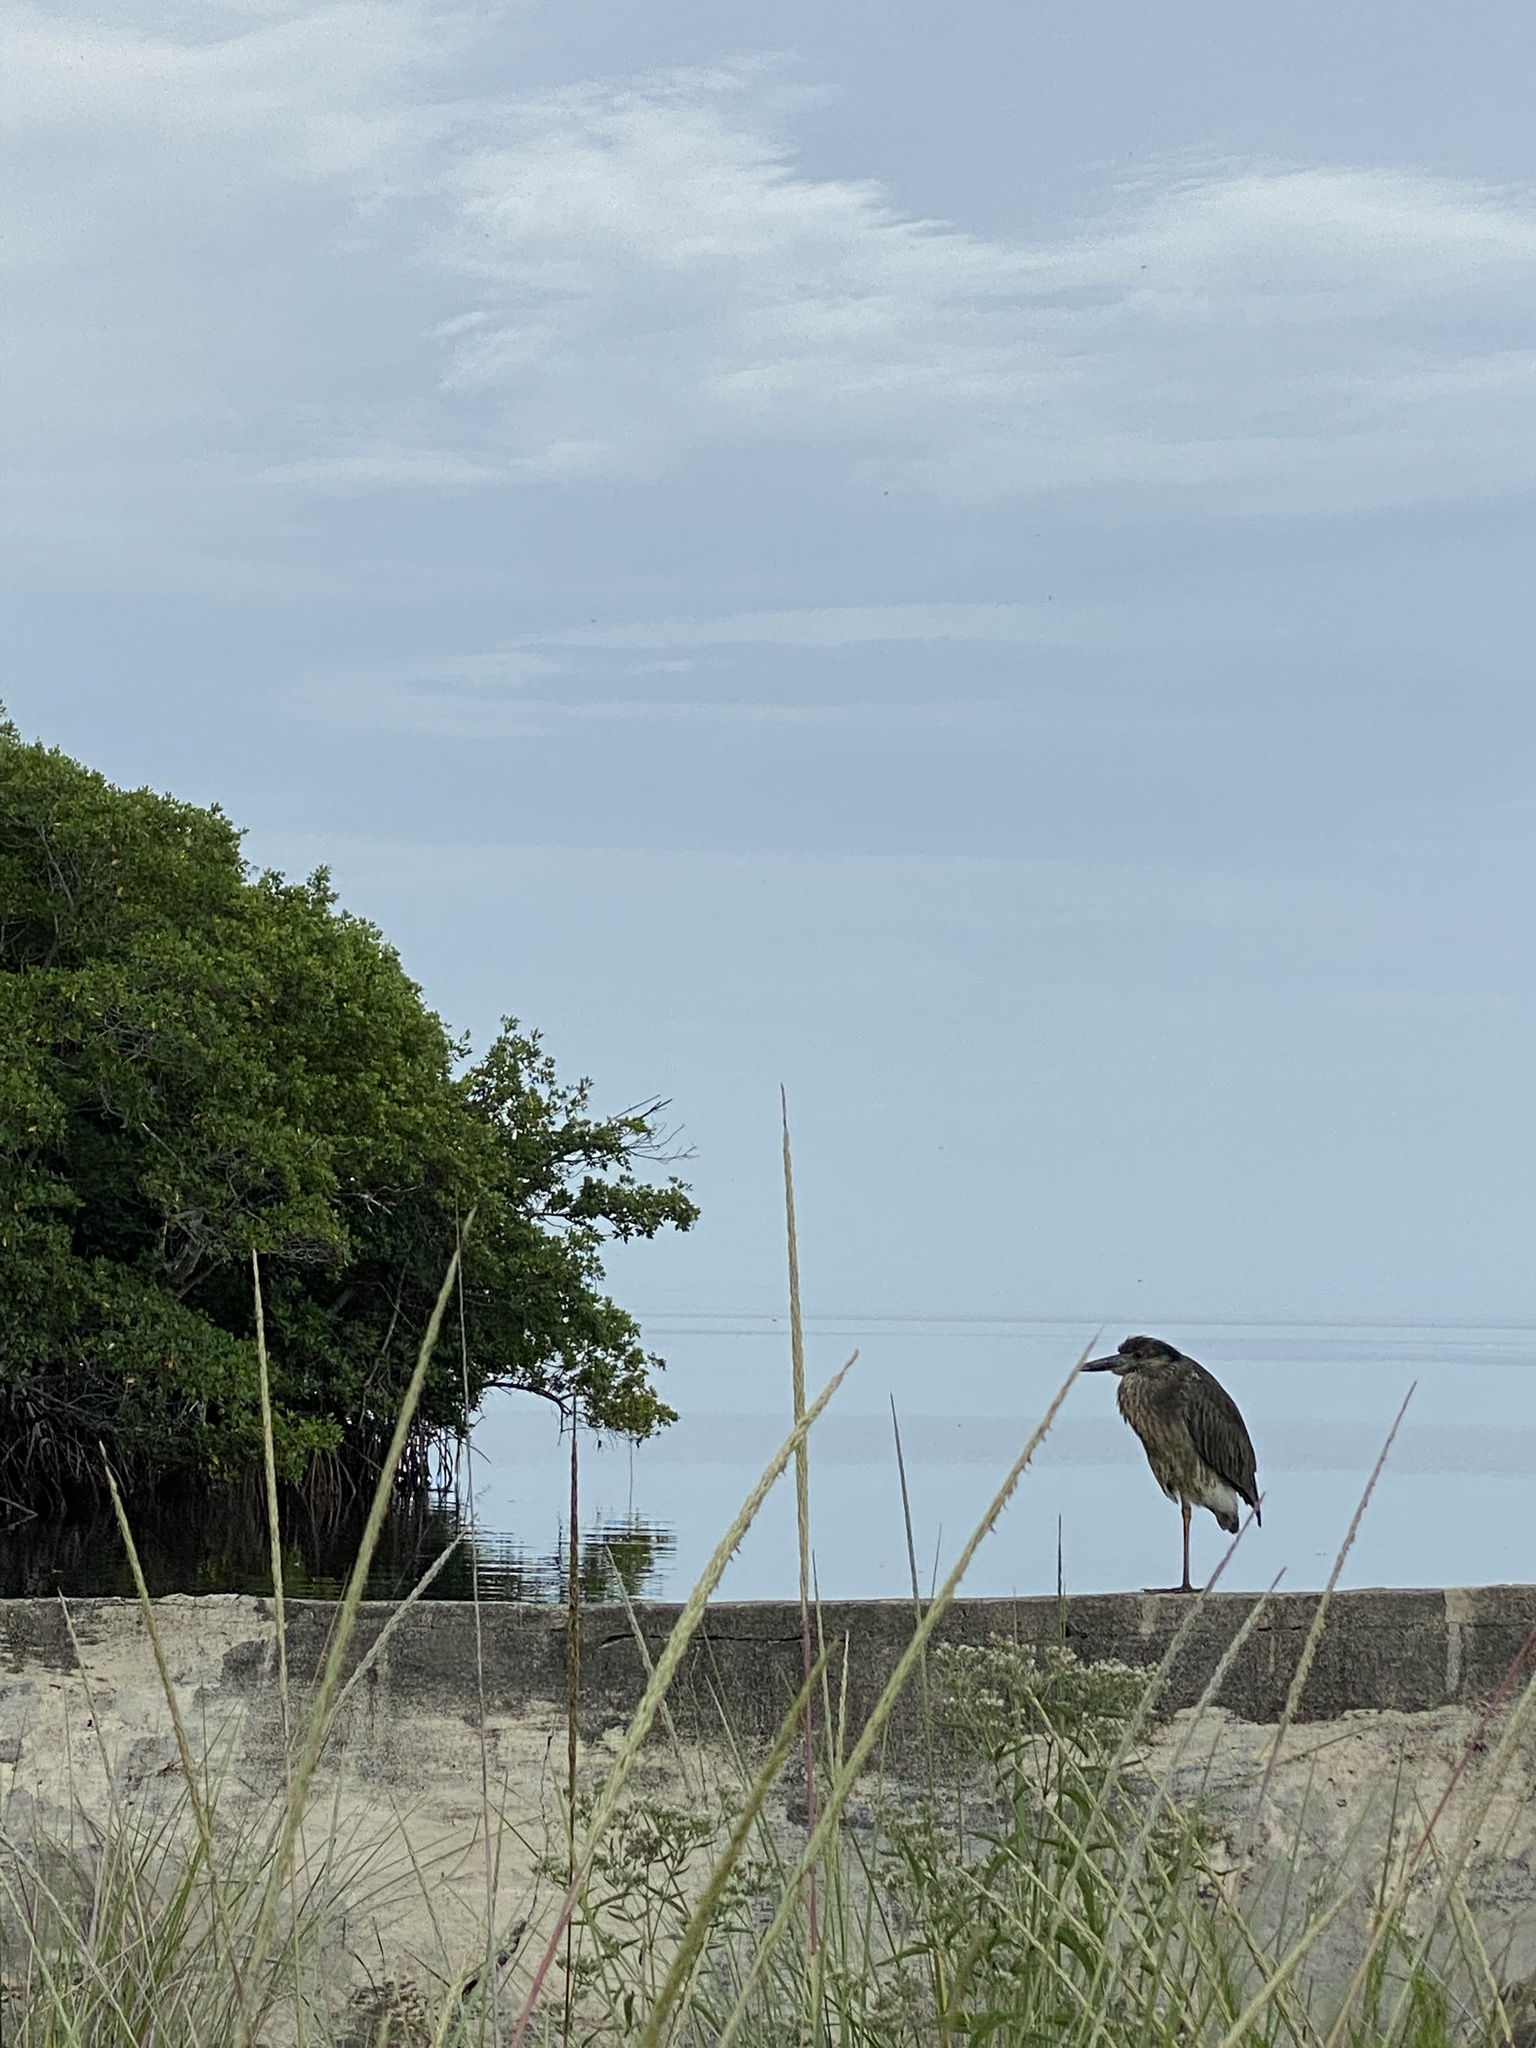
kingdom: Animalia
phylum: Chordata
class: Aves
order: Pelecaniformes
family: Ardeidae
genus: Nyctanassa
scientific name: Nyctanassa violacea
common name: Yellow-crowned night heron
